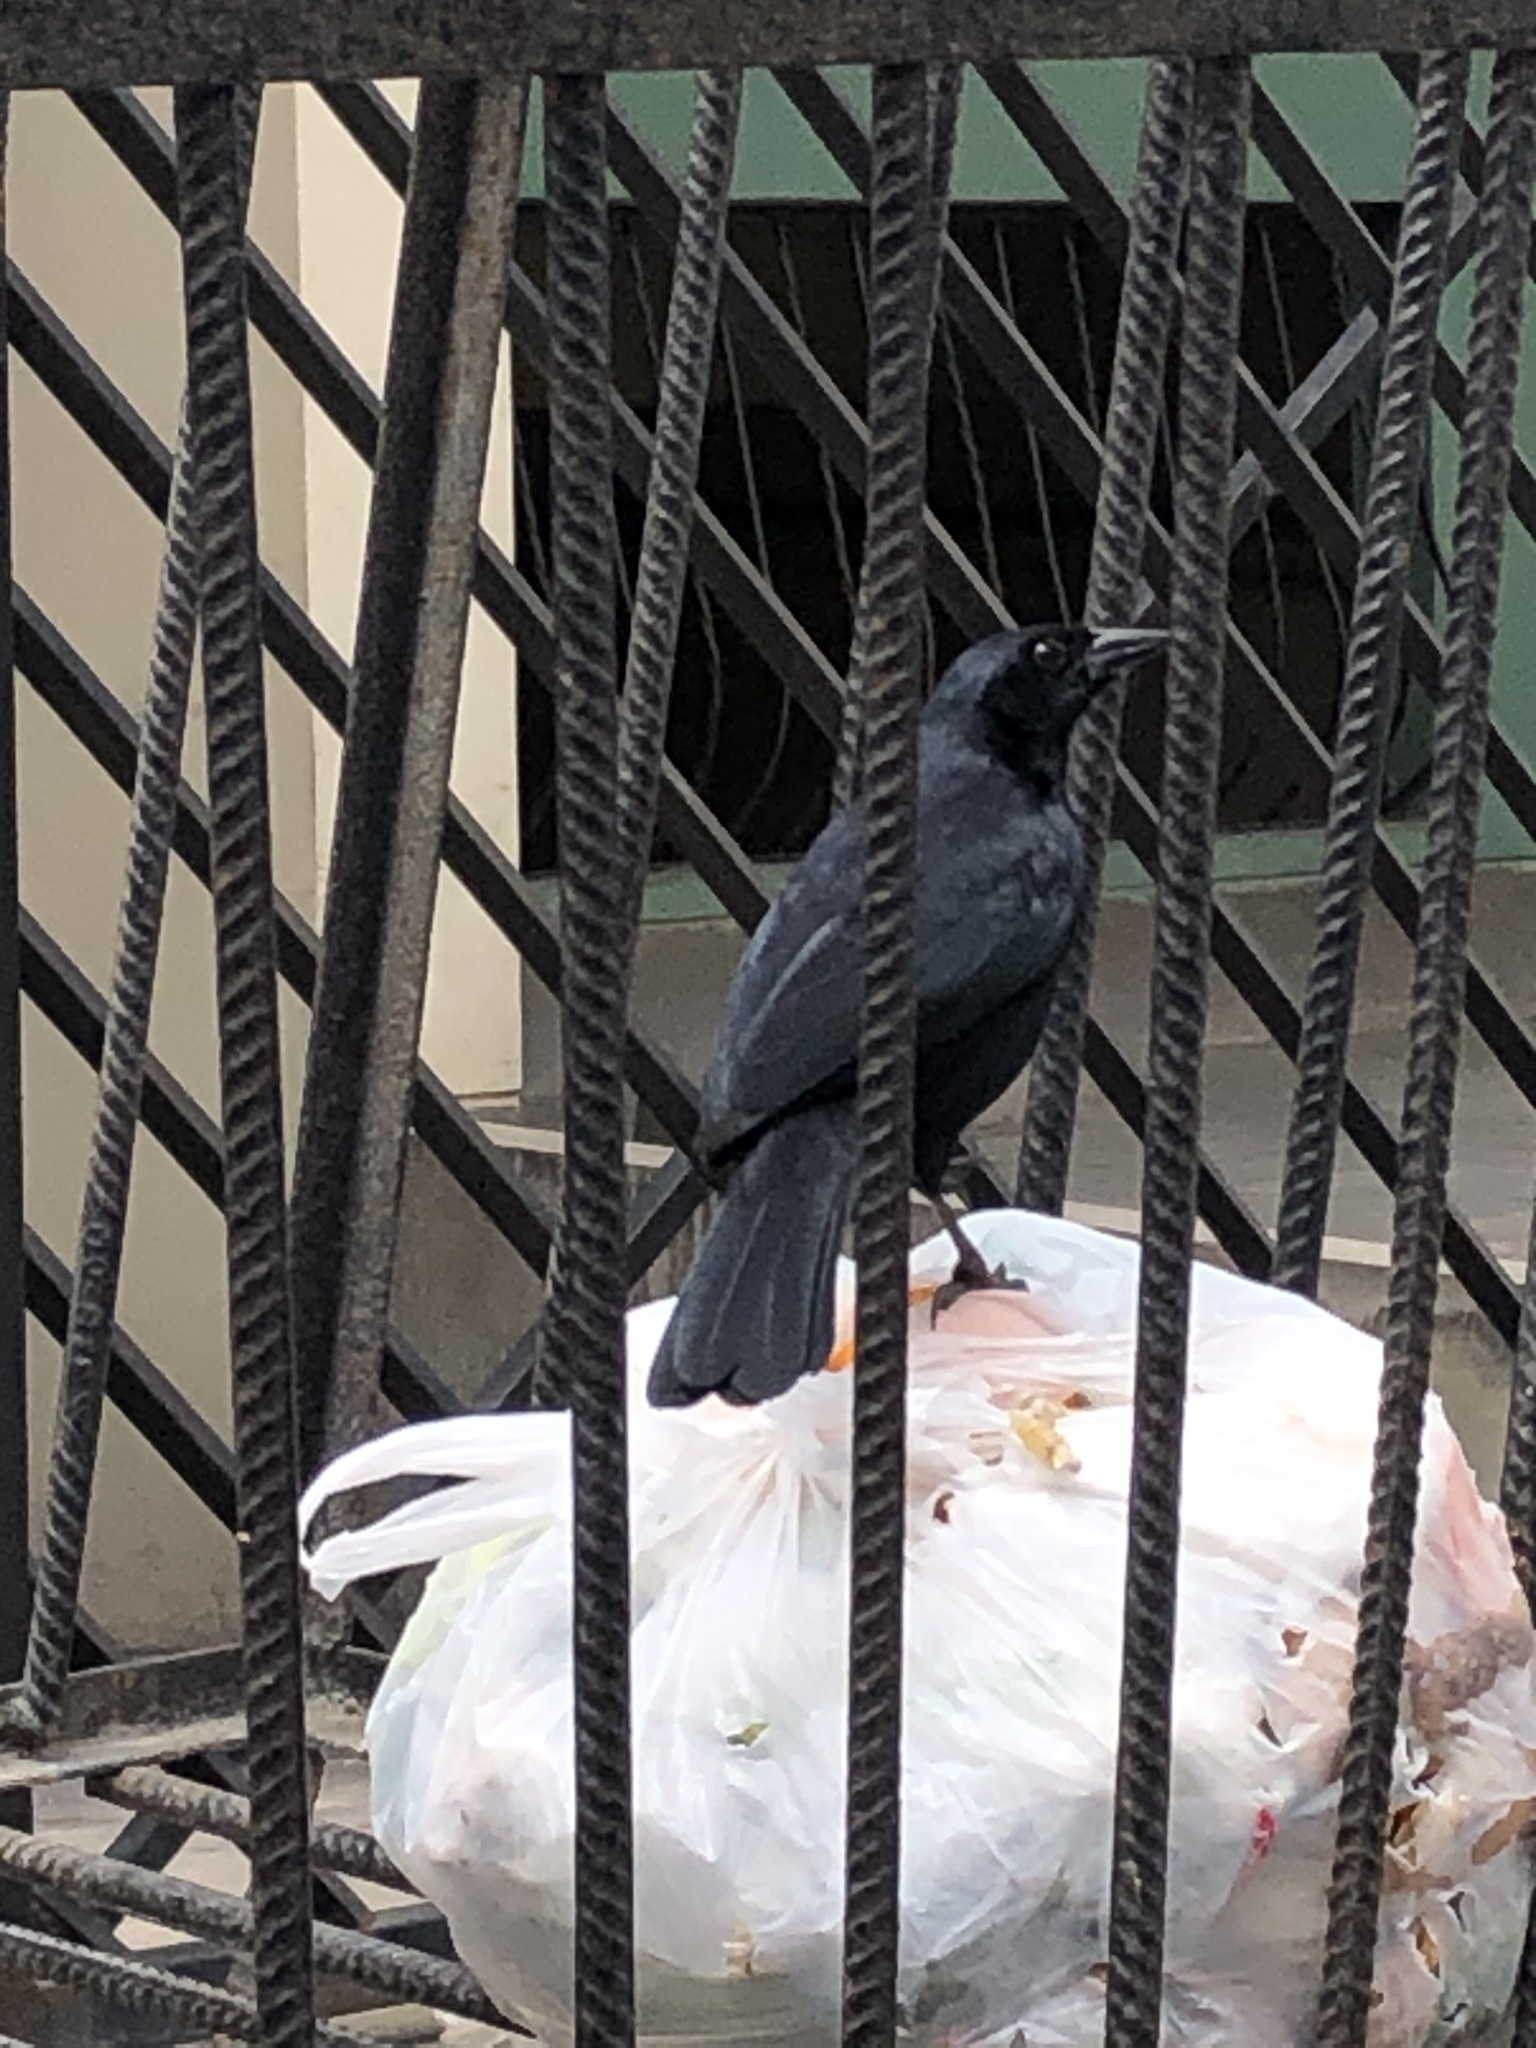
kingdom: Animalia
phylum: Chordata
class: Aves
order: Passeriformes
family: Icteridae
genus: Dives
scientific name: Dives warczewiczi
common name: Scrub blackbird
